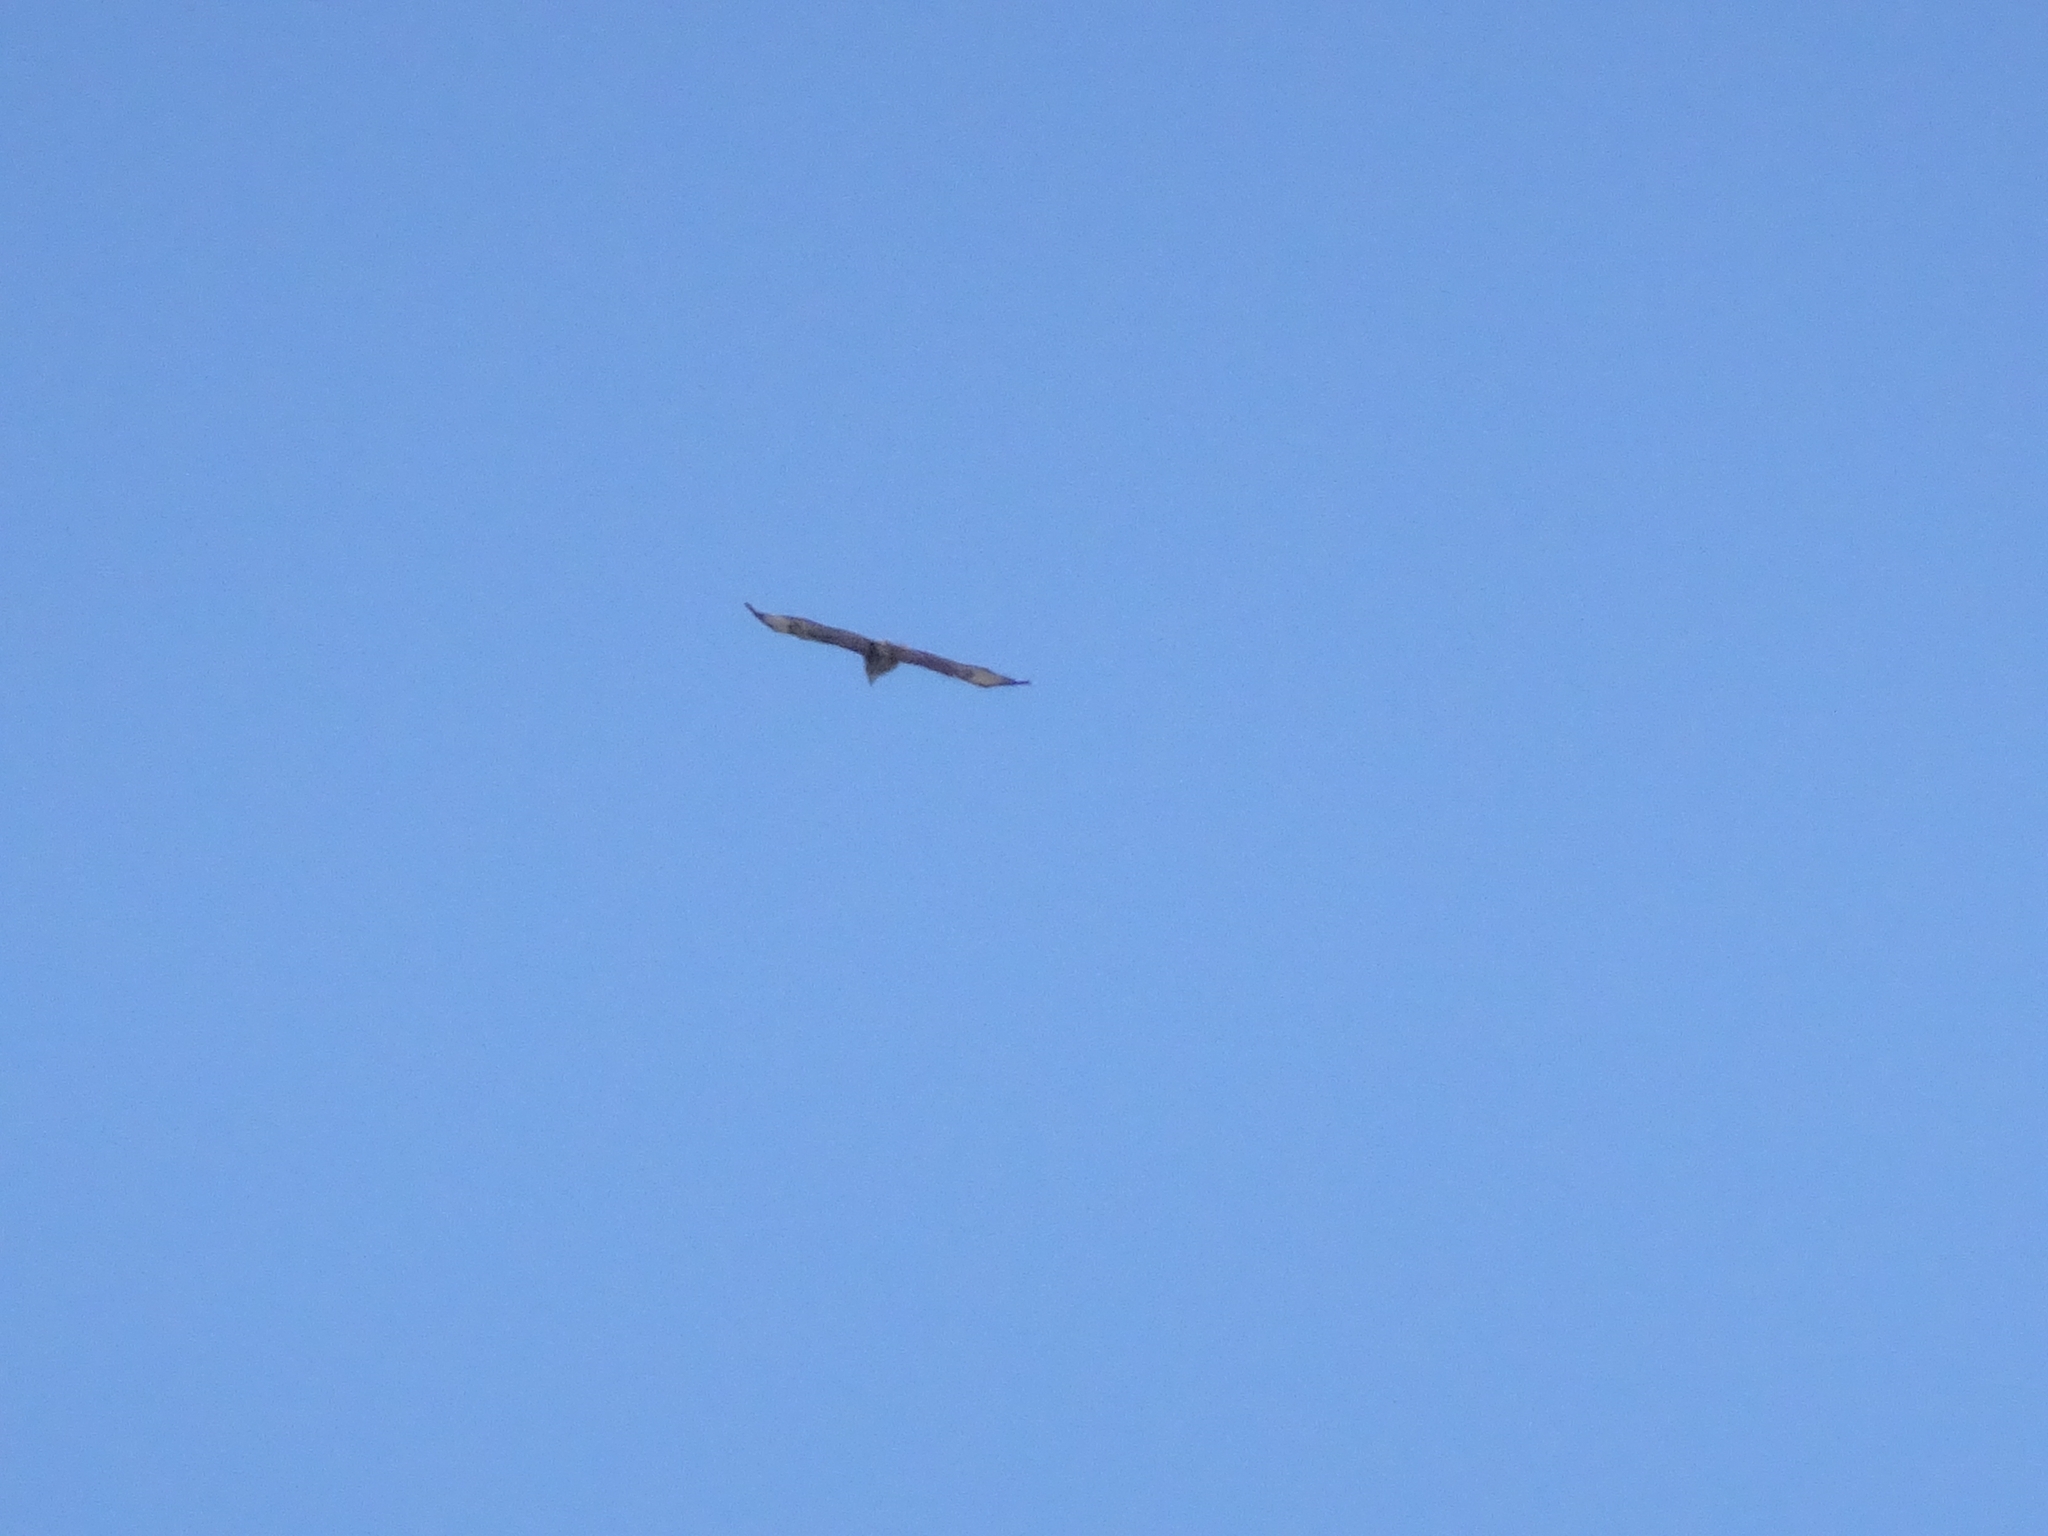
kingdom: Animalia
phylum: Chordata
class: Aves
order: Accipitriformes
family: Accipitridae
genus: Buteo
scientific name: Buteo buteo
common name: Common buzzard
